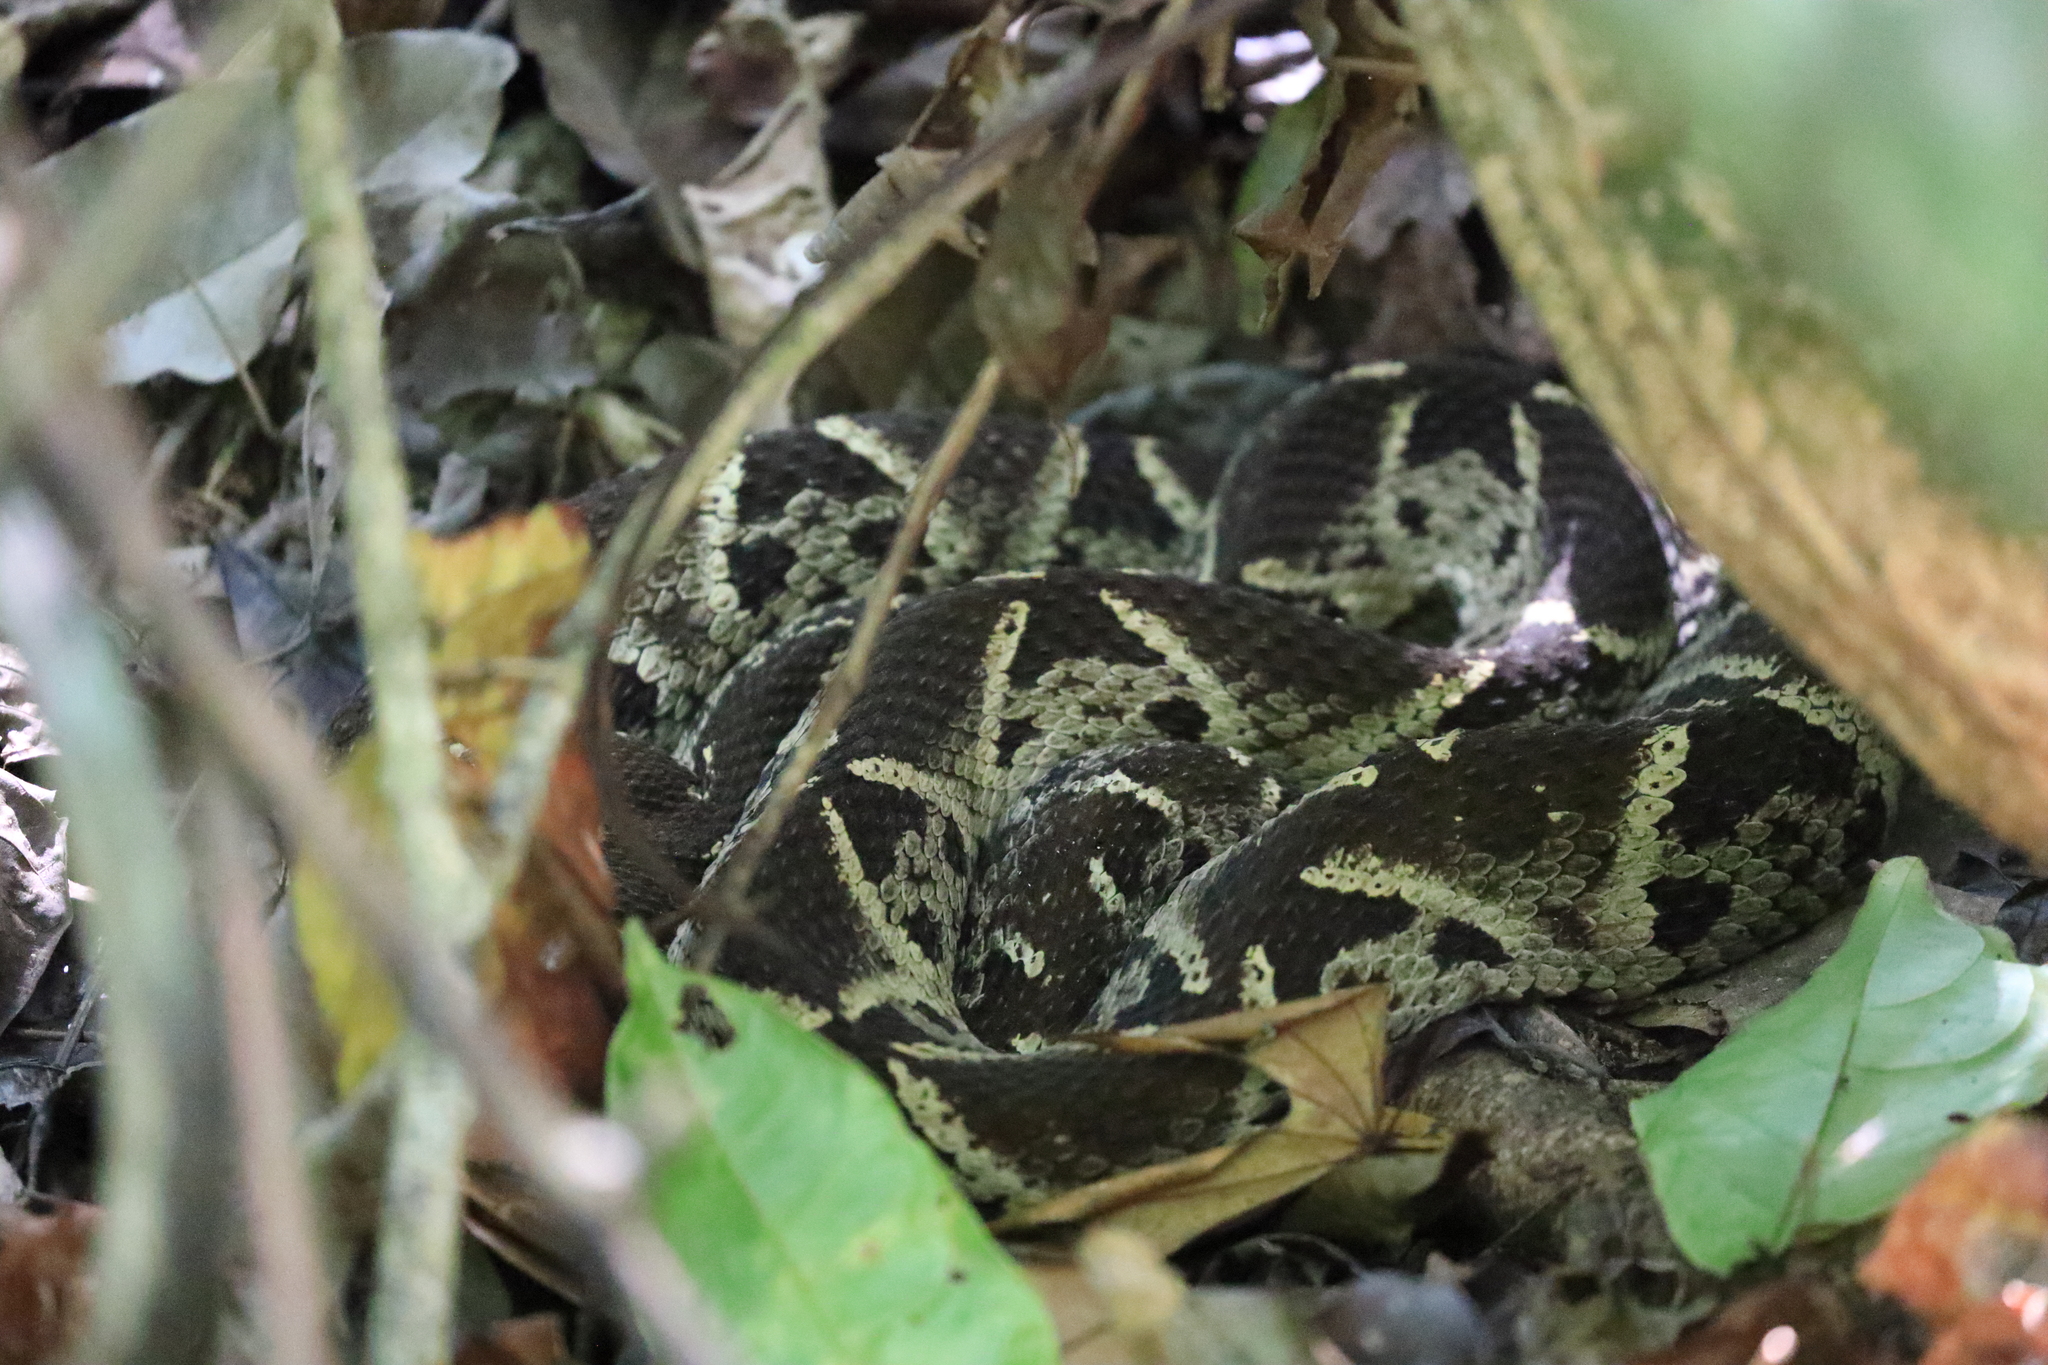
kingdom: Animalia
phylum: Chordata
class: Squamata
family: Viperidae
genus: Bothrops
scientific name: Bothrops asper
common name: Terciopelo
